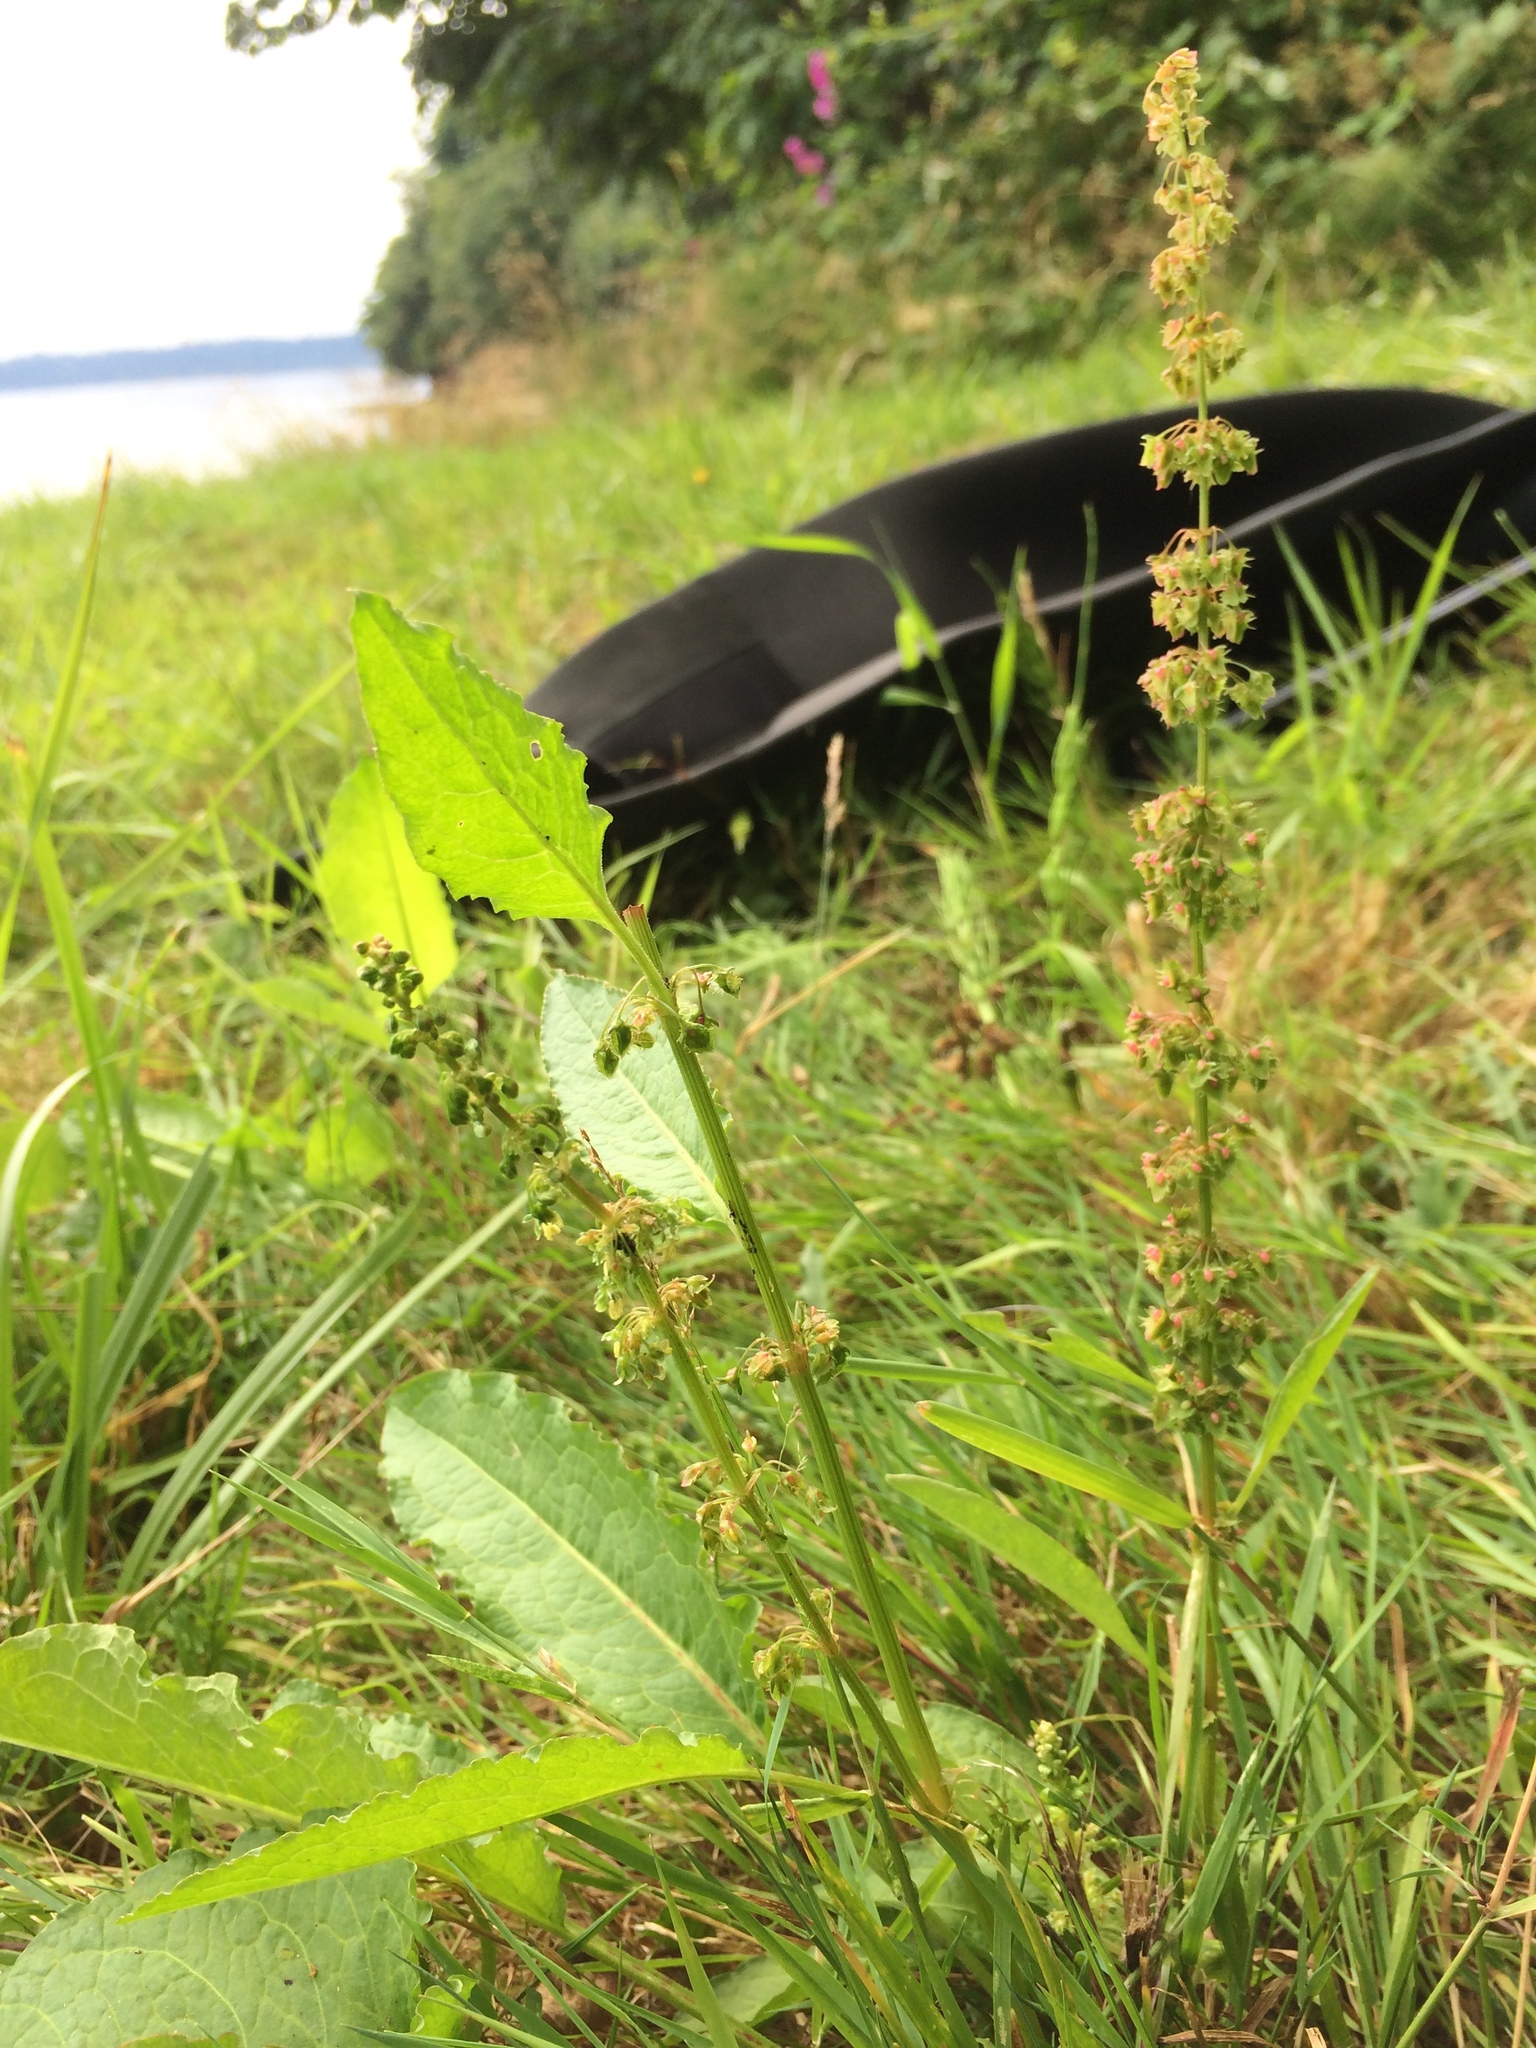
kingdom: Plantae
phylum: Tracheophyta
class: Magnoliopsida
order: Caryophyllales
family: Polygonaceae
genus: Rumex
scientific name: Rumex crispus
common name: Curled dock
